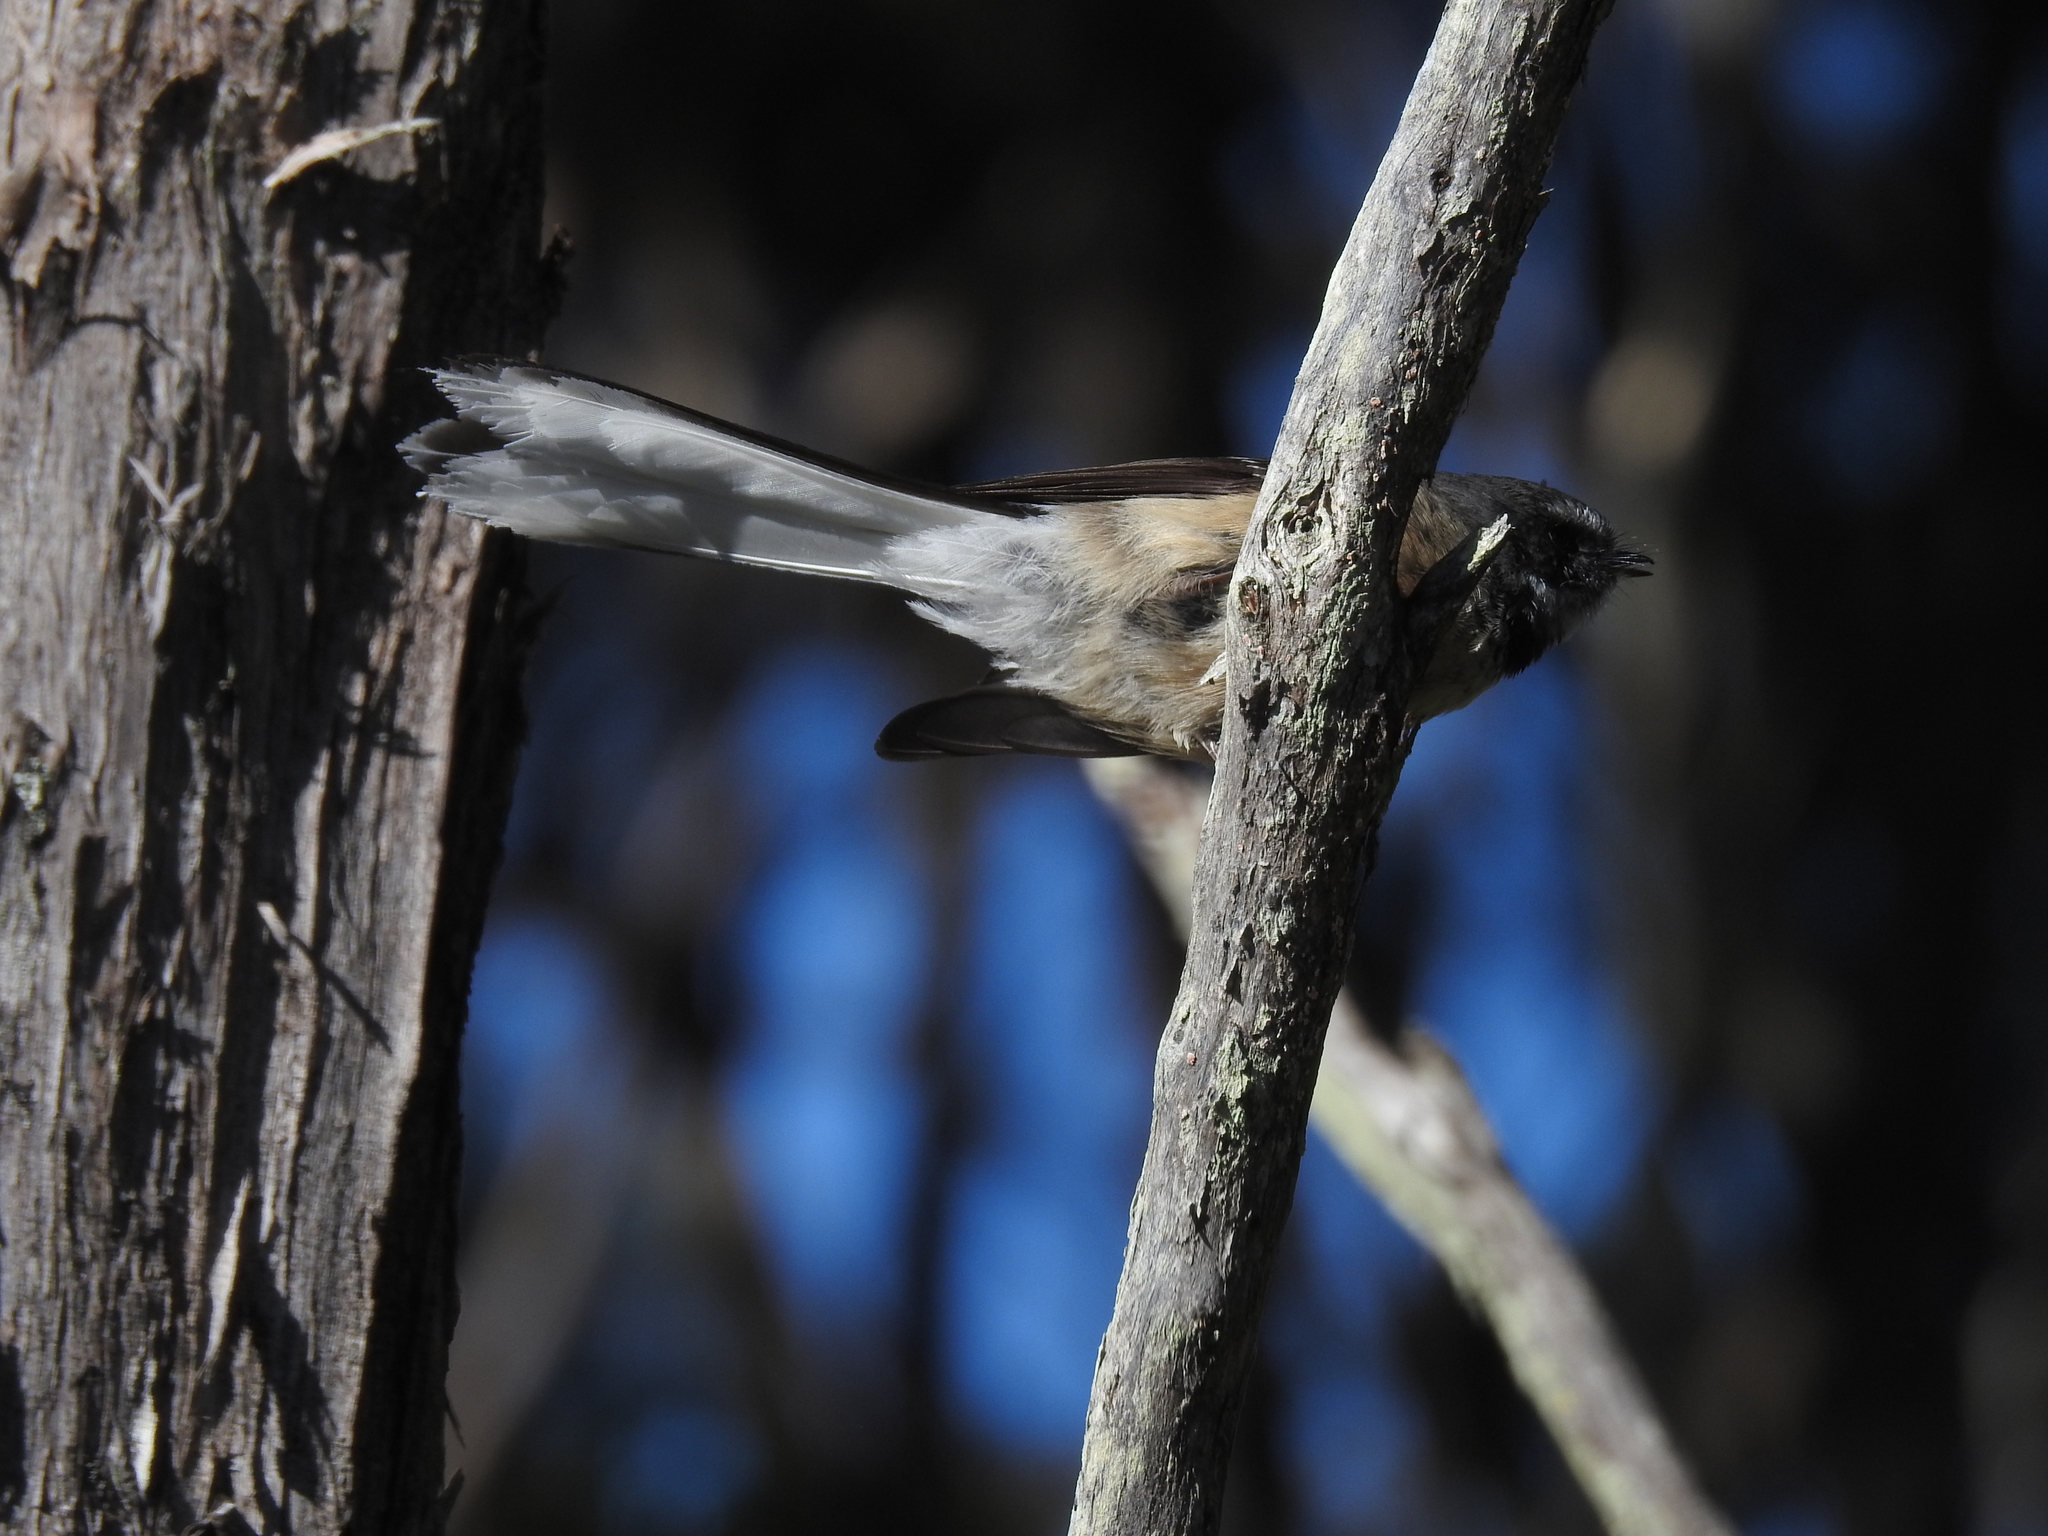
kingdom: Animalia
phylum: Chordata
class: Aves
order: Passeriformes
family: Rhipiduridae
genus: Rhipidura
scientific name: Rhipidura fuliginosa
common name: New zealand fantail
